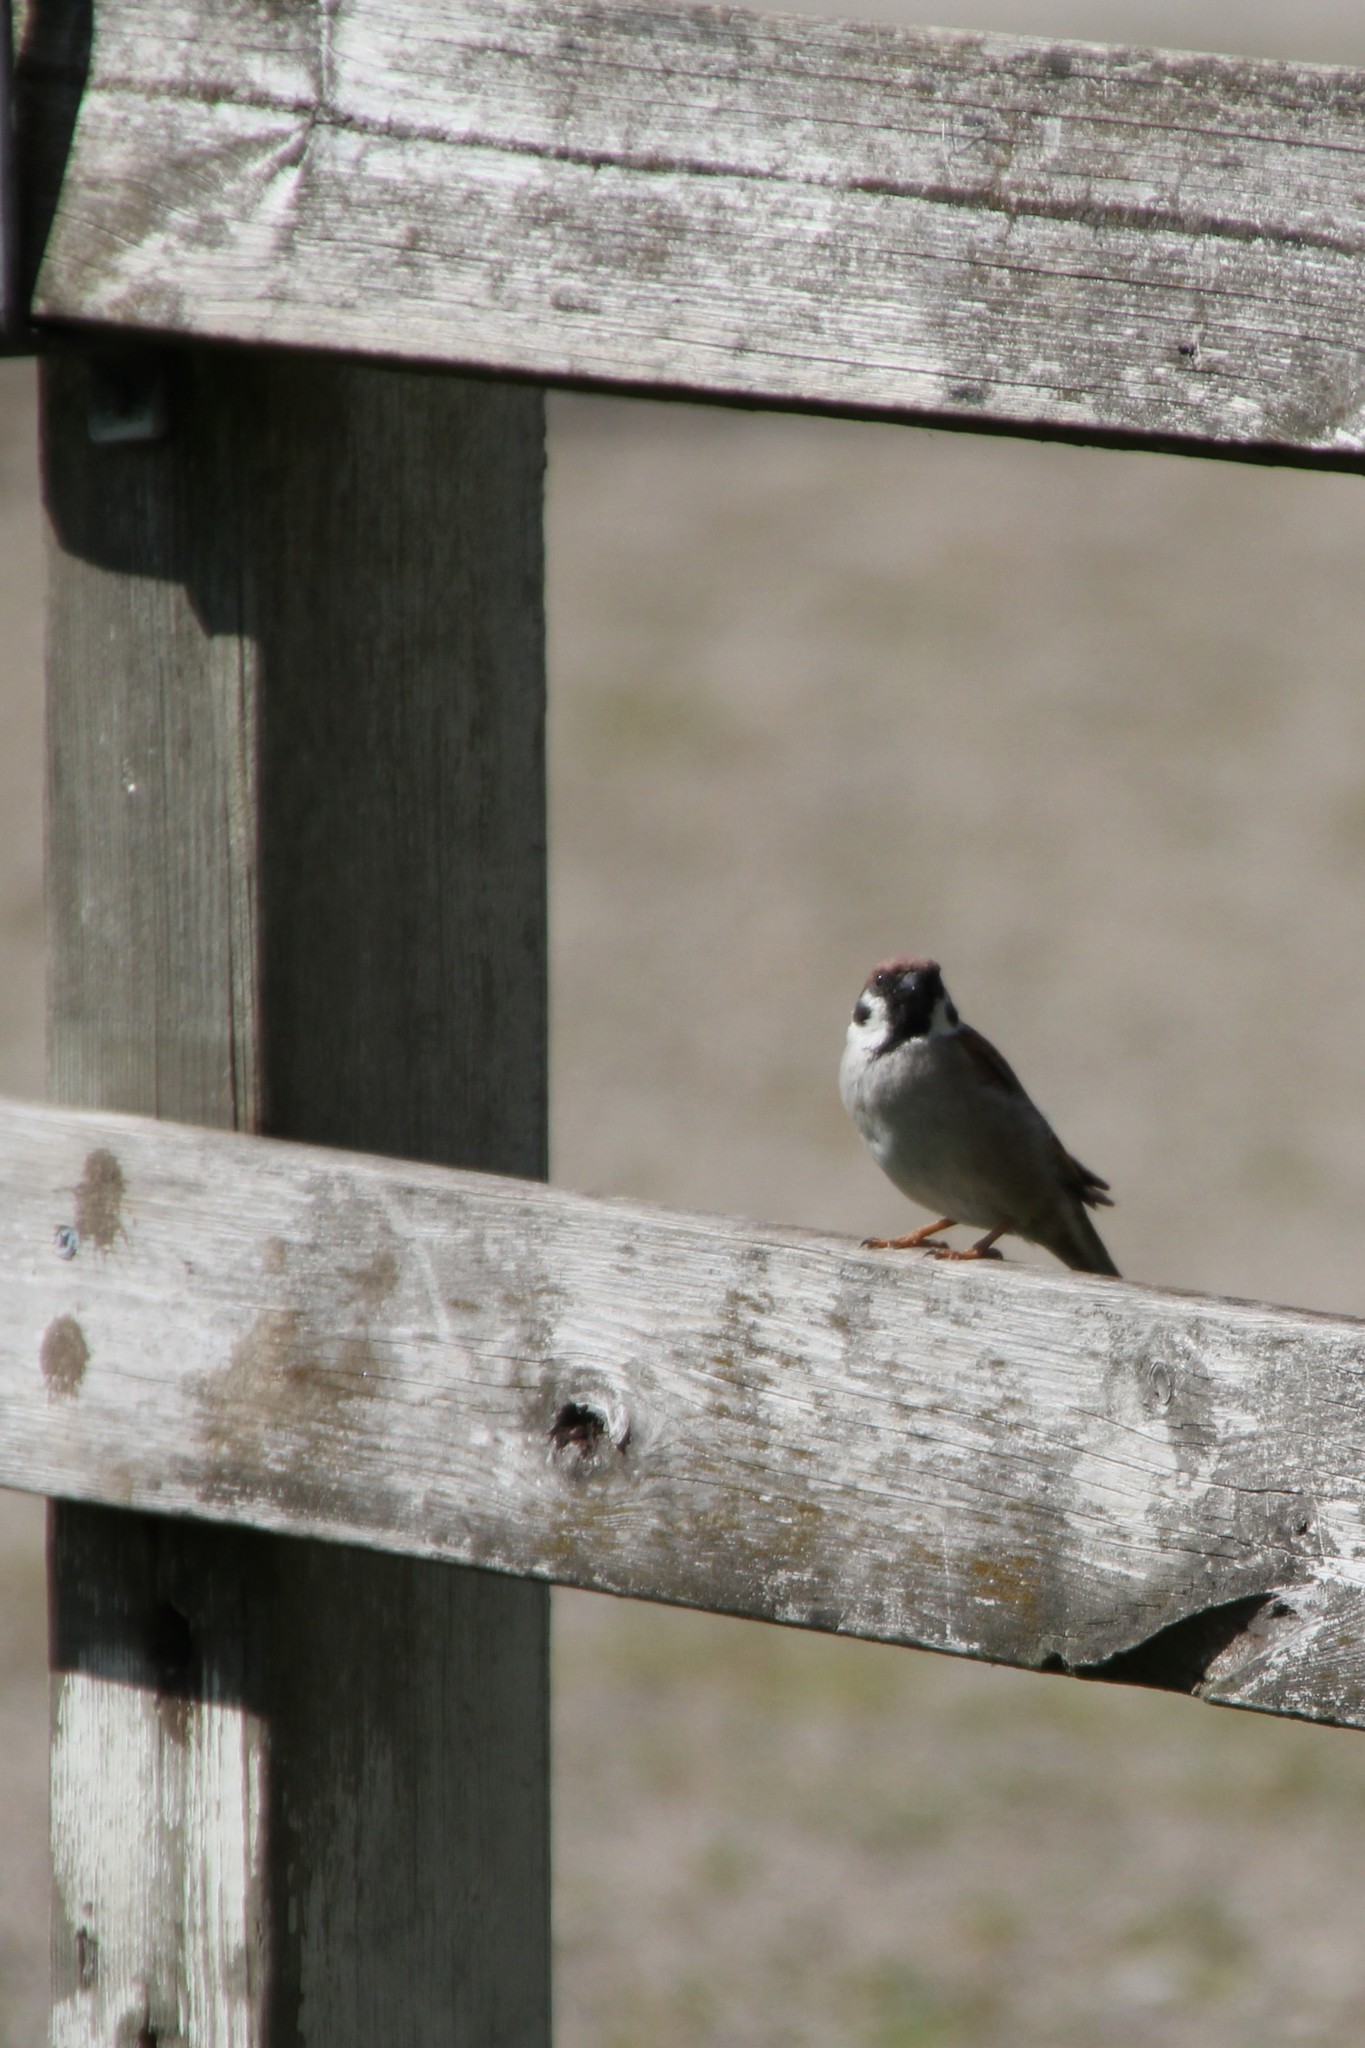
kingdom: Animalia
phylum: Chordata
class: Aves
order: Passeriformes
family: Passeridae
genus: Passer
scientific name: Passer montanus
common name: Eurasian tree sparrow
